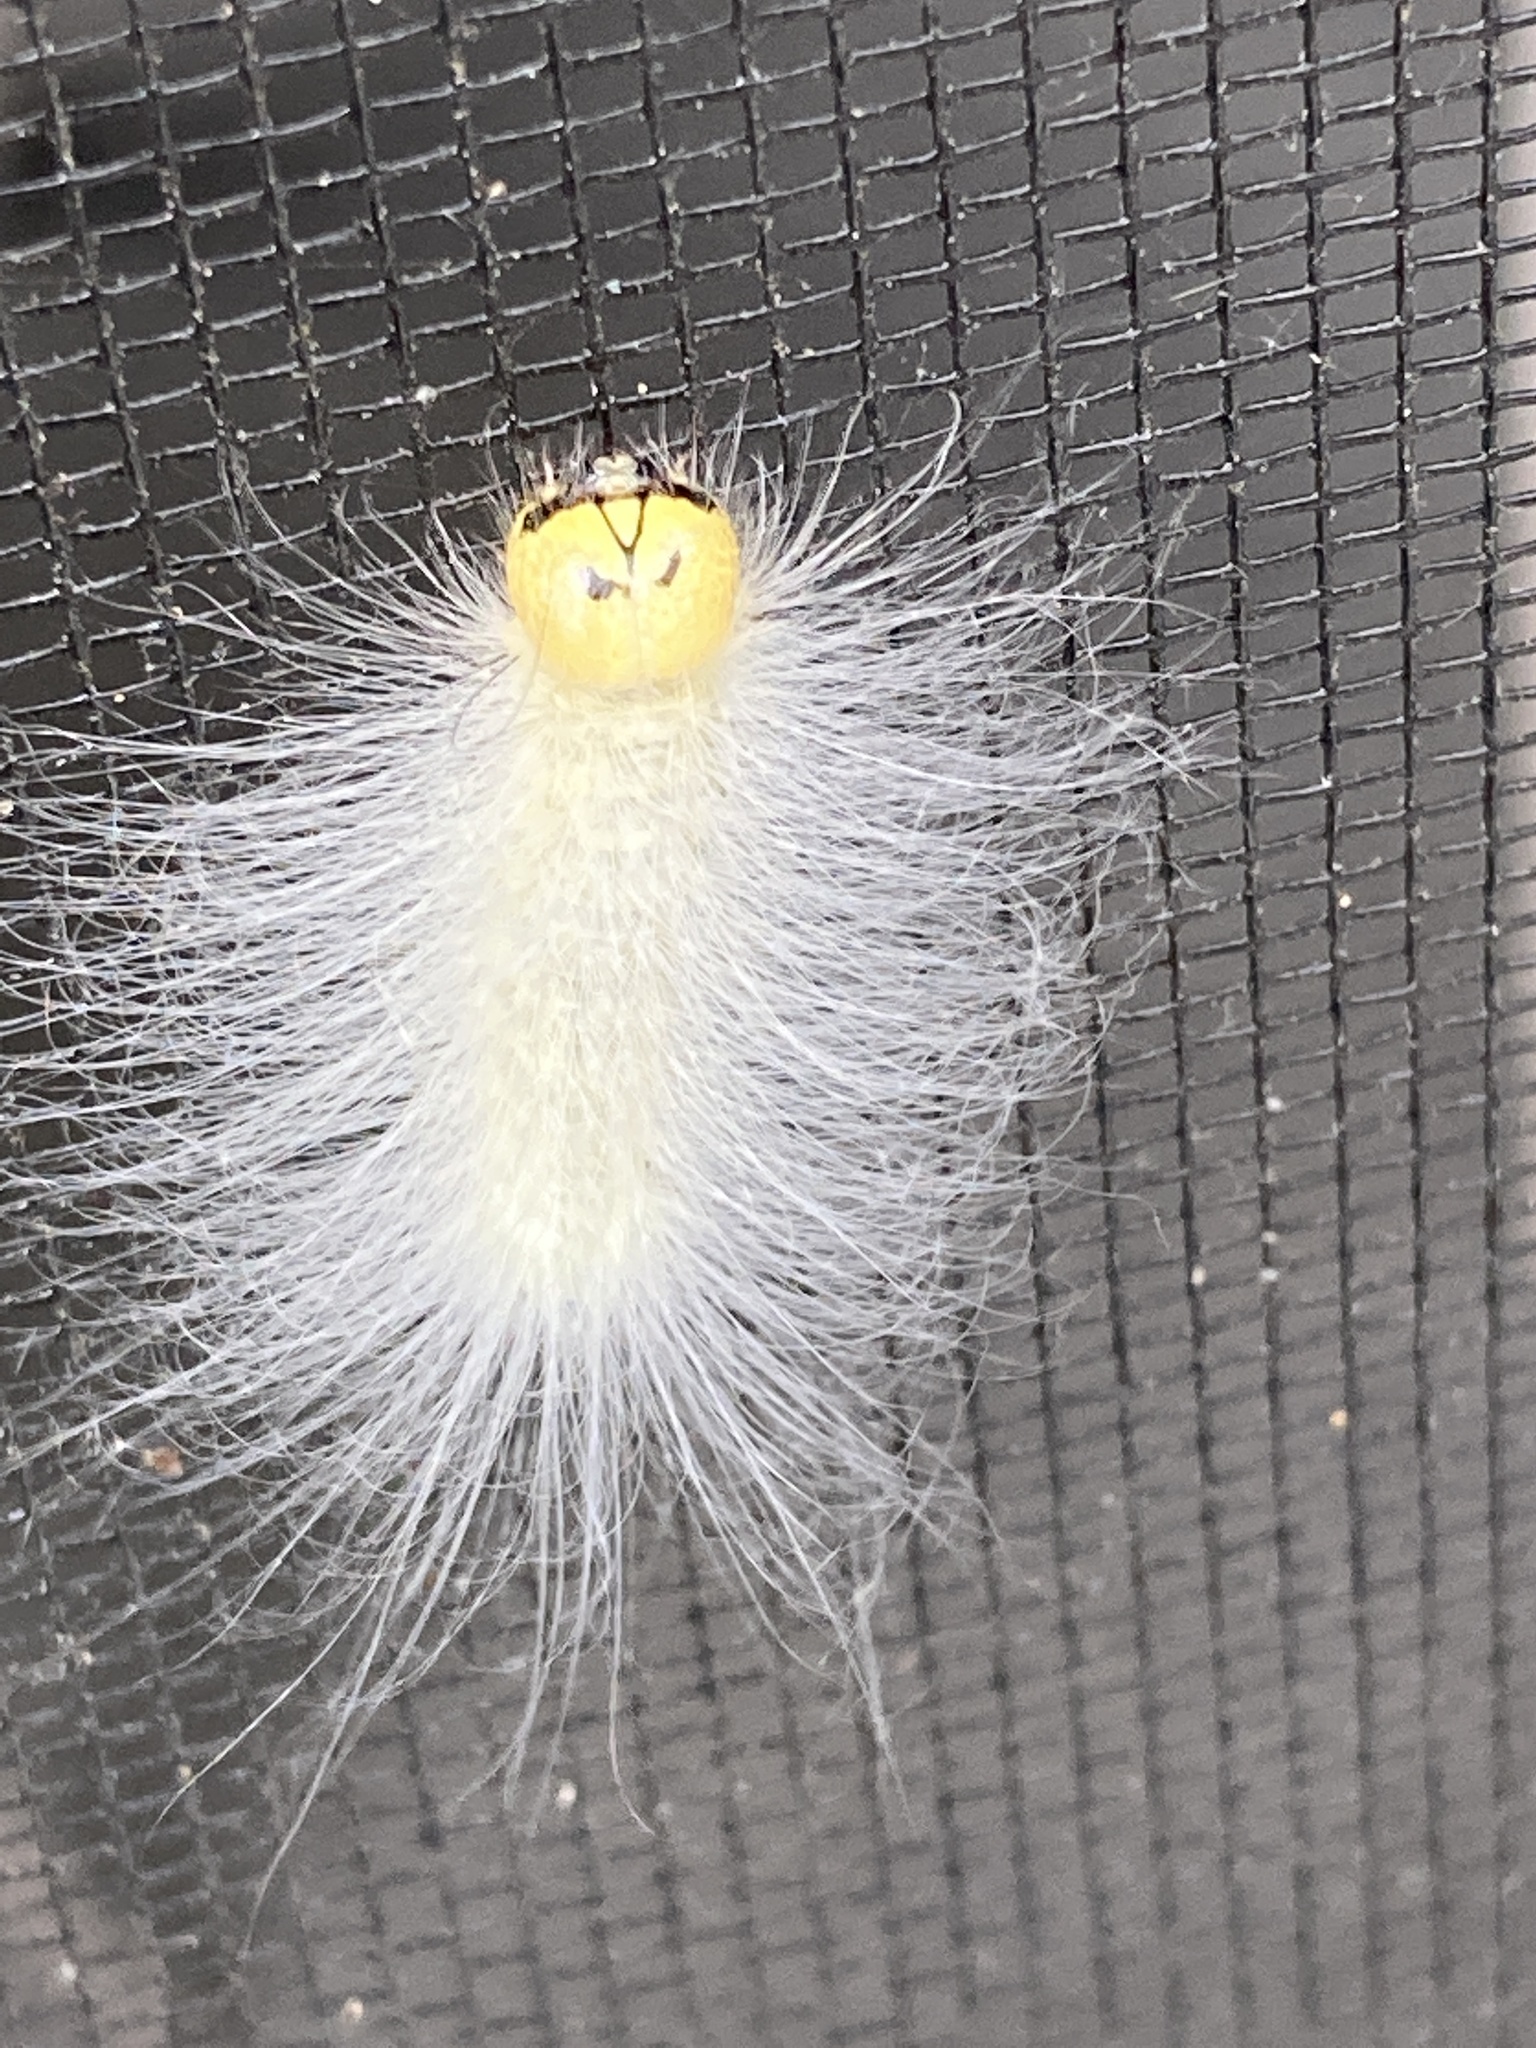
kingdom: Animalia
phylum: Arthropoda
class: Insecta
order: Lepidoptera
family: Noctuidae
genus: Charadra
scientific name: Charadra deridens
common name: Marbled tuffet
